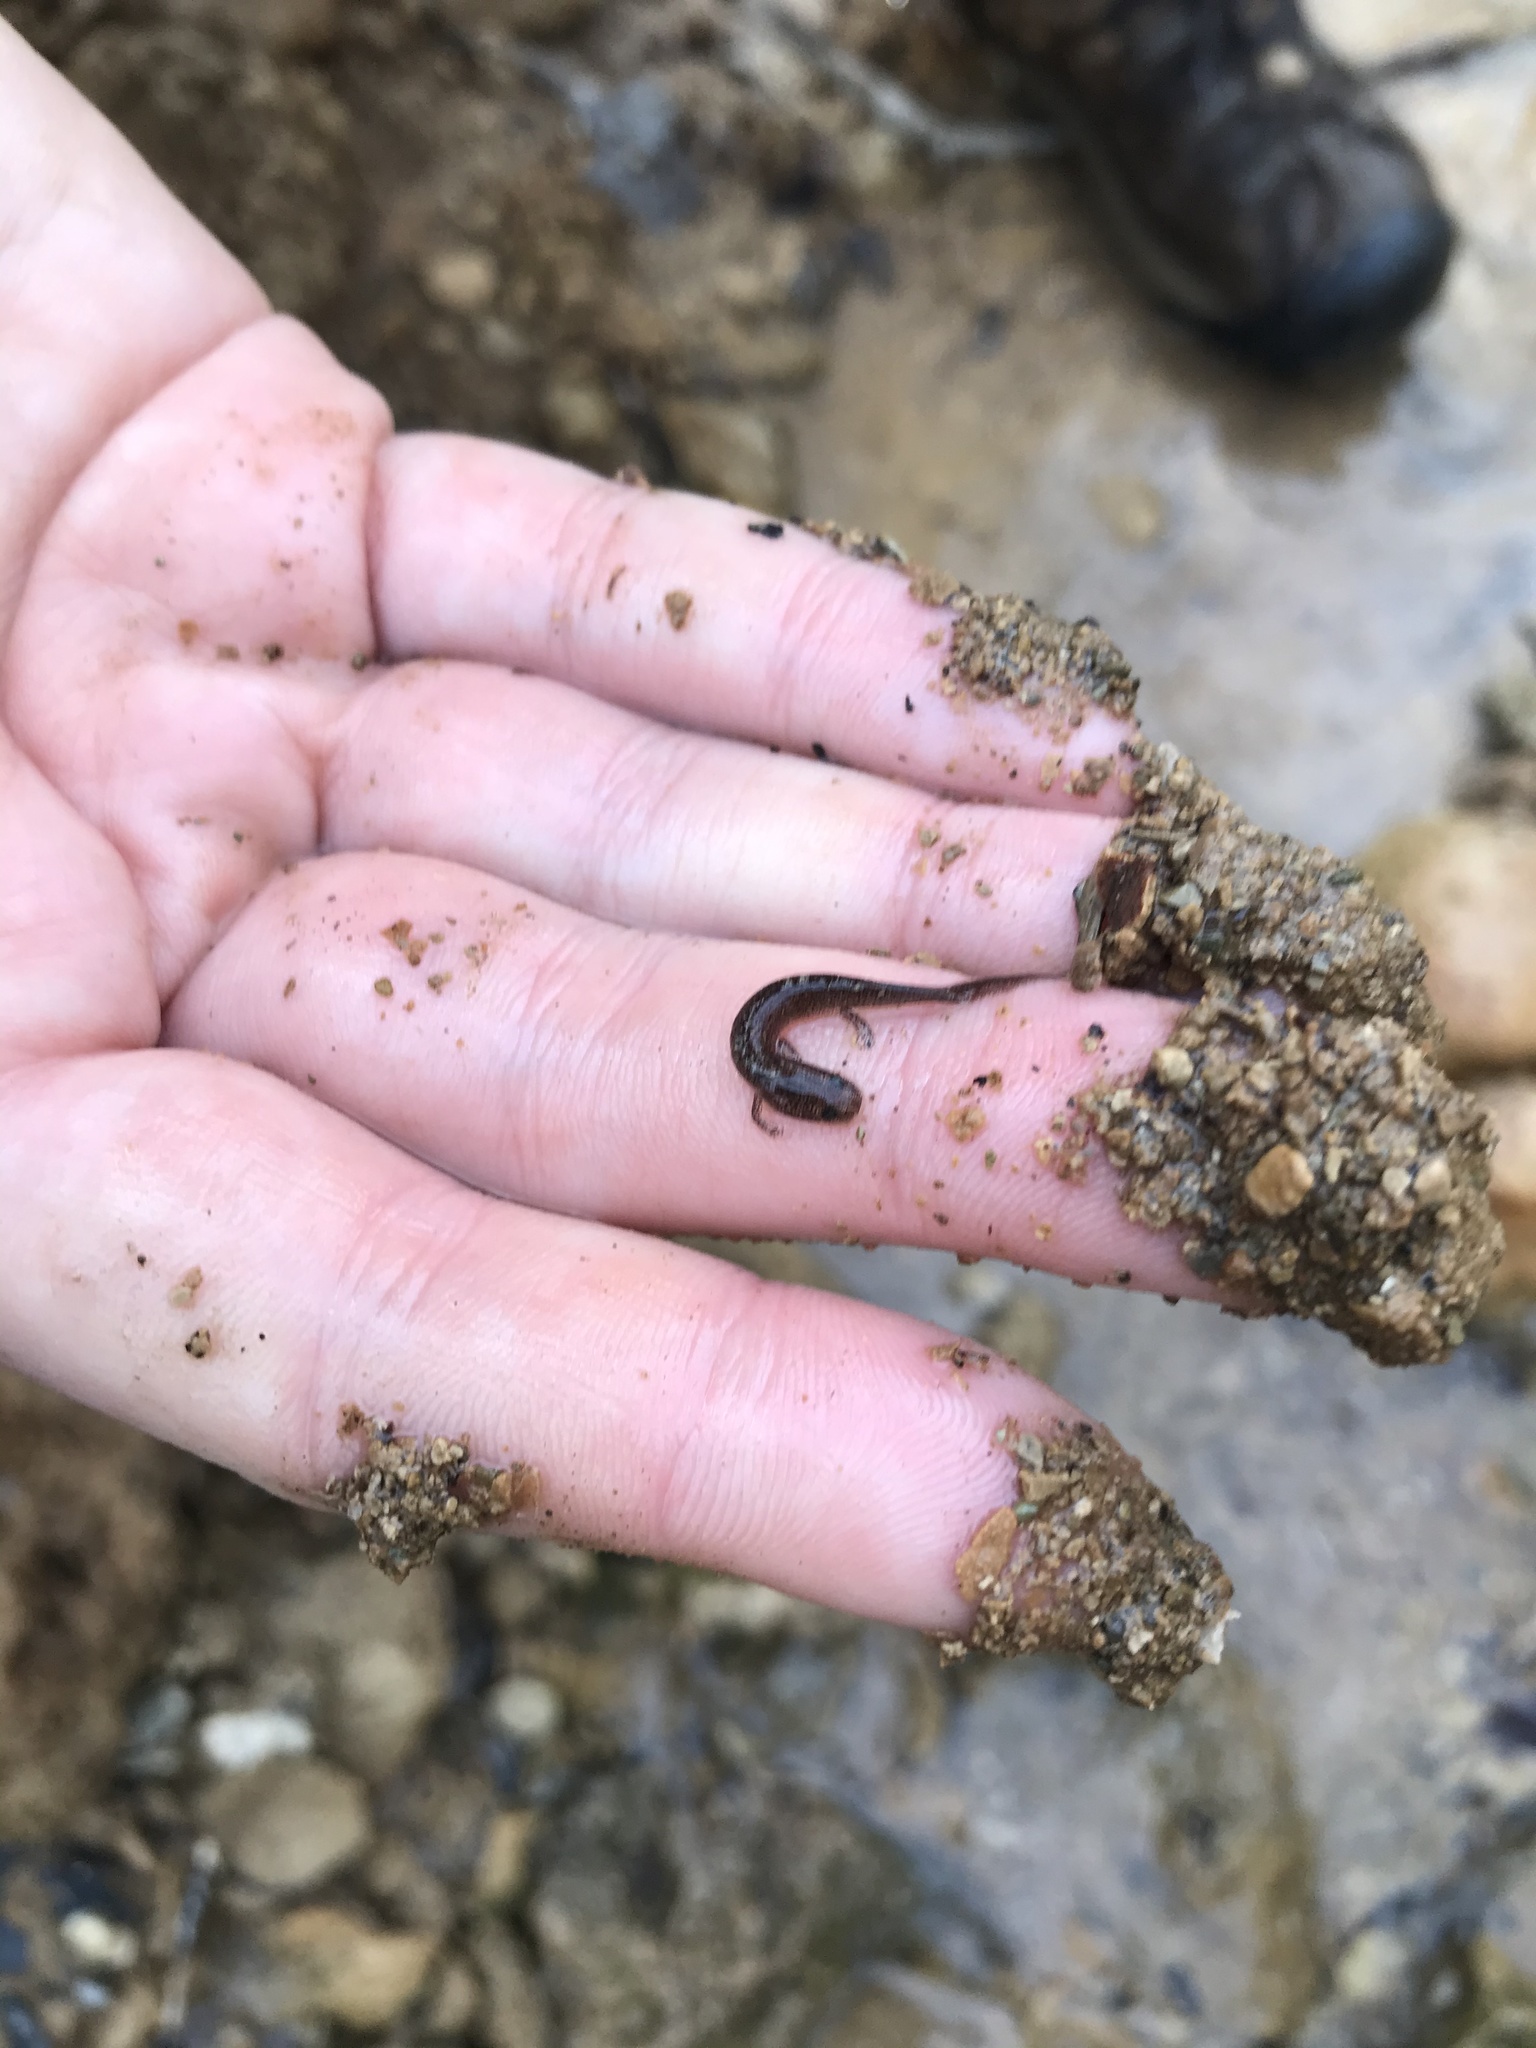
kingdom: Animalia
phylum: Chordata
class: Amphibia
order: Caudata
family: Plethodontidae
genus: Pseudotriton
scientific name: Pseudotriton ruber
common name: Red salamander
